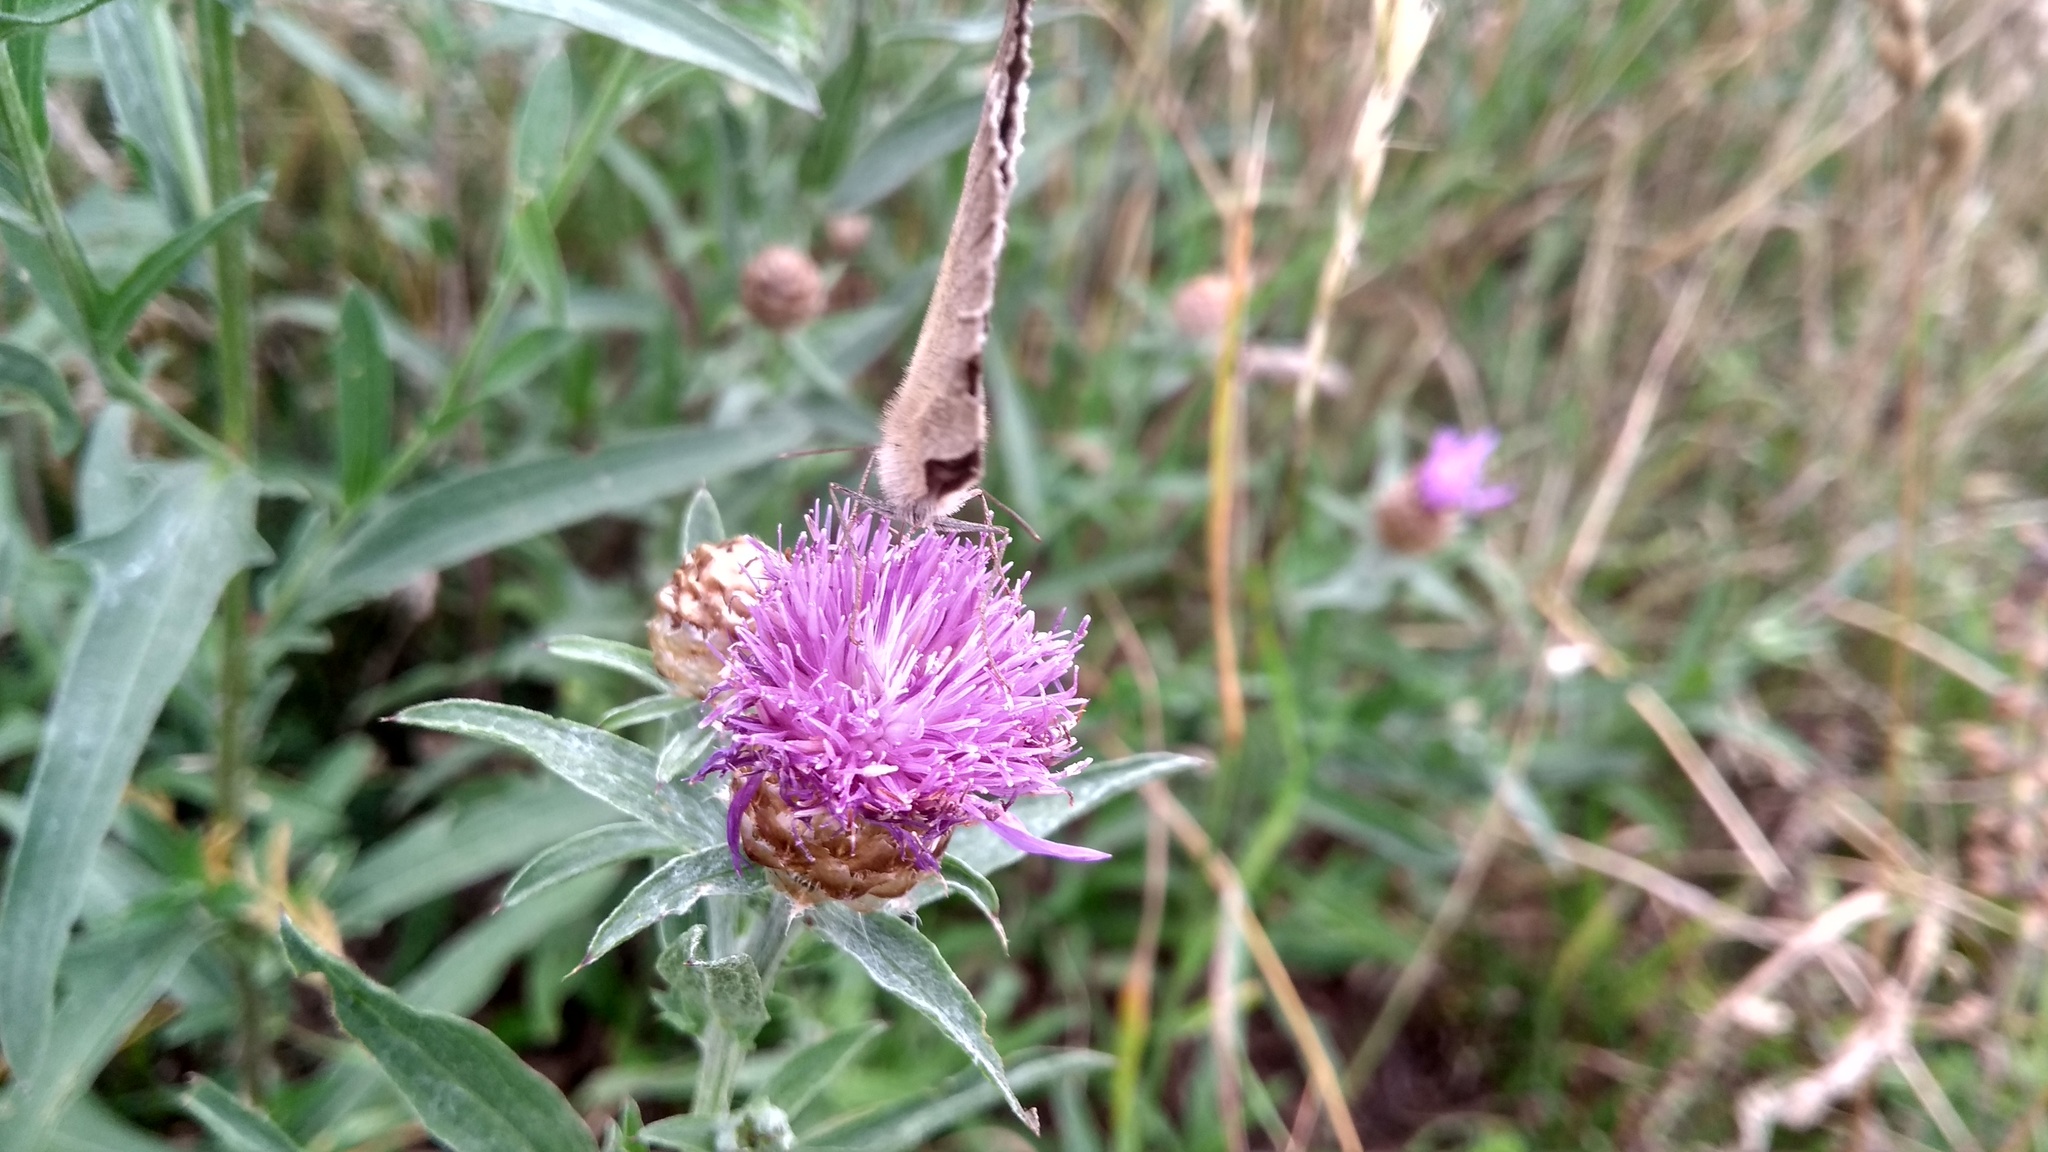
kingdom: Animalia
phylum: Arthropoda
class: Insecta
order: Lepidoptera
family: Nymphalidae
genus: Maniola
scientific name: Maniola jurtina
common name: Meadow brown
